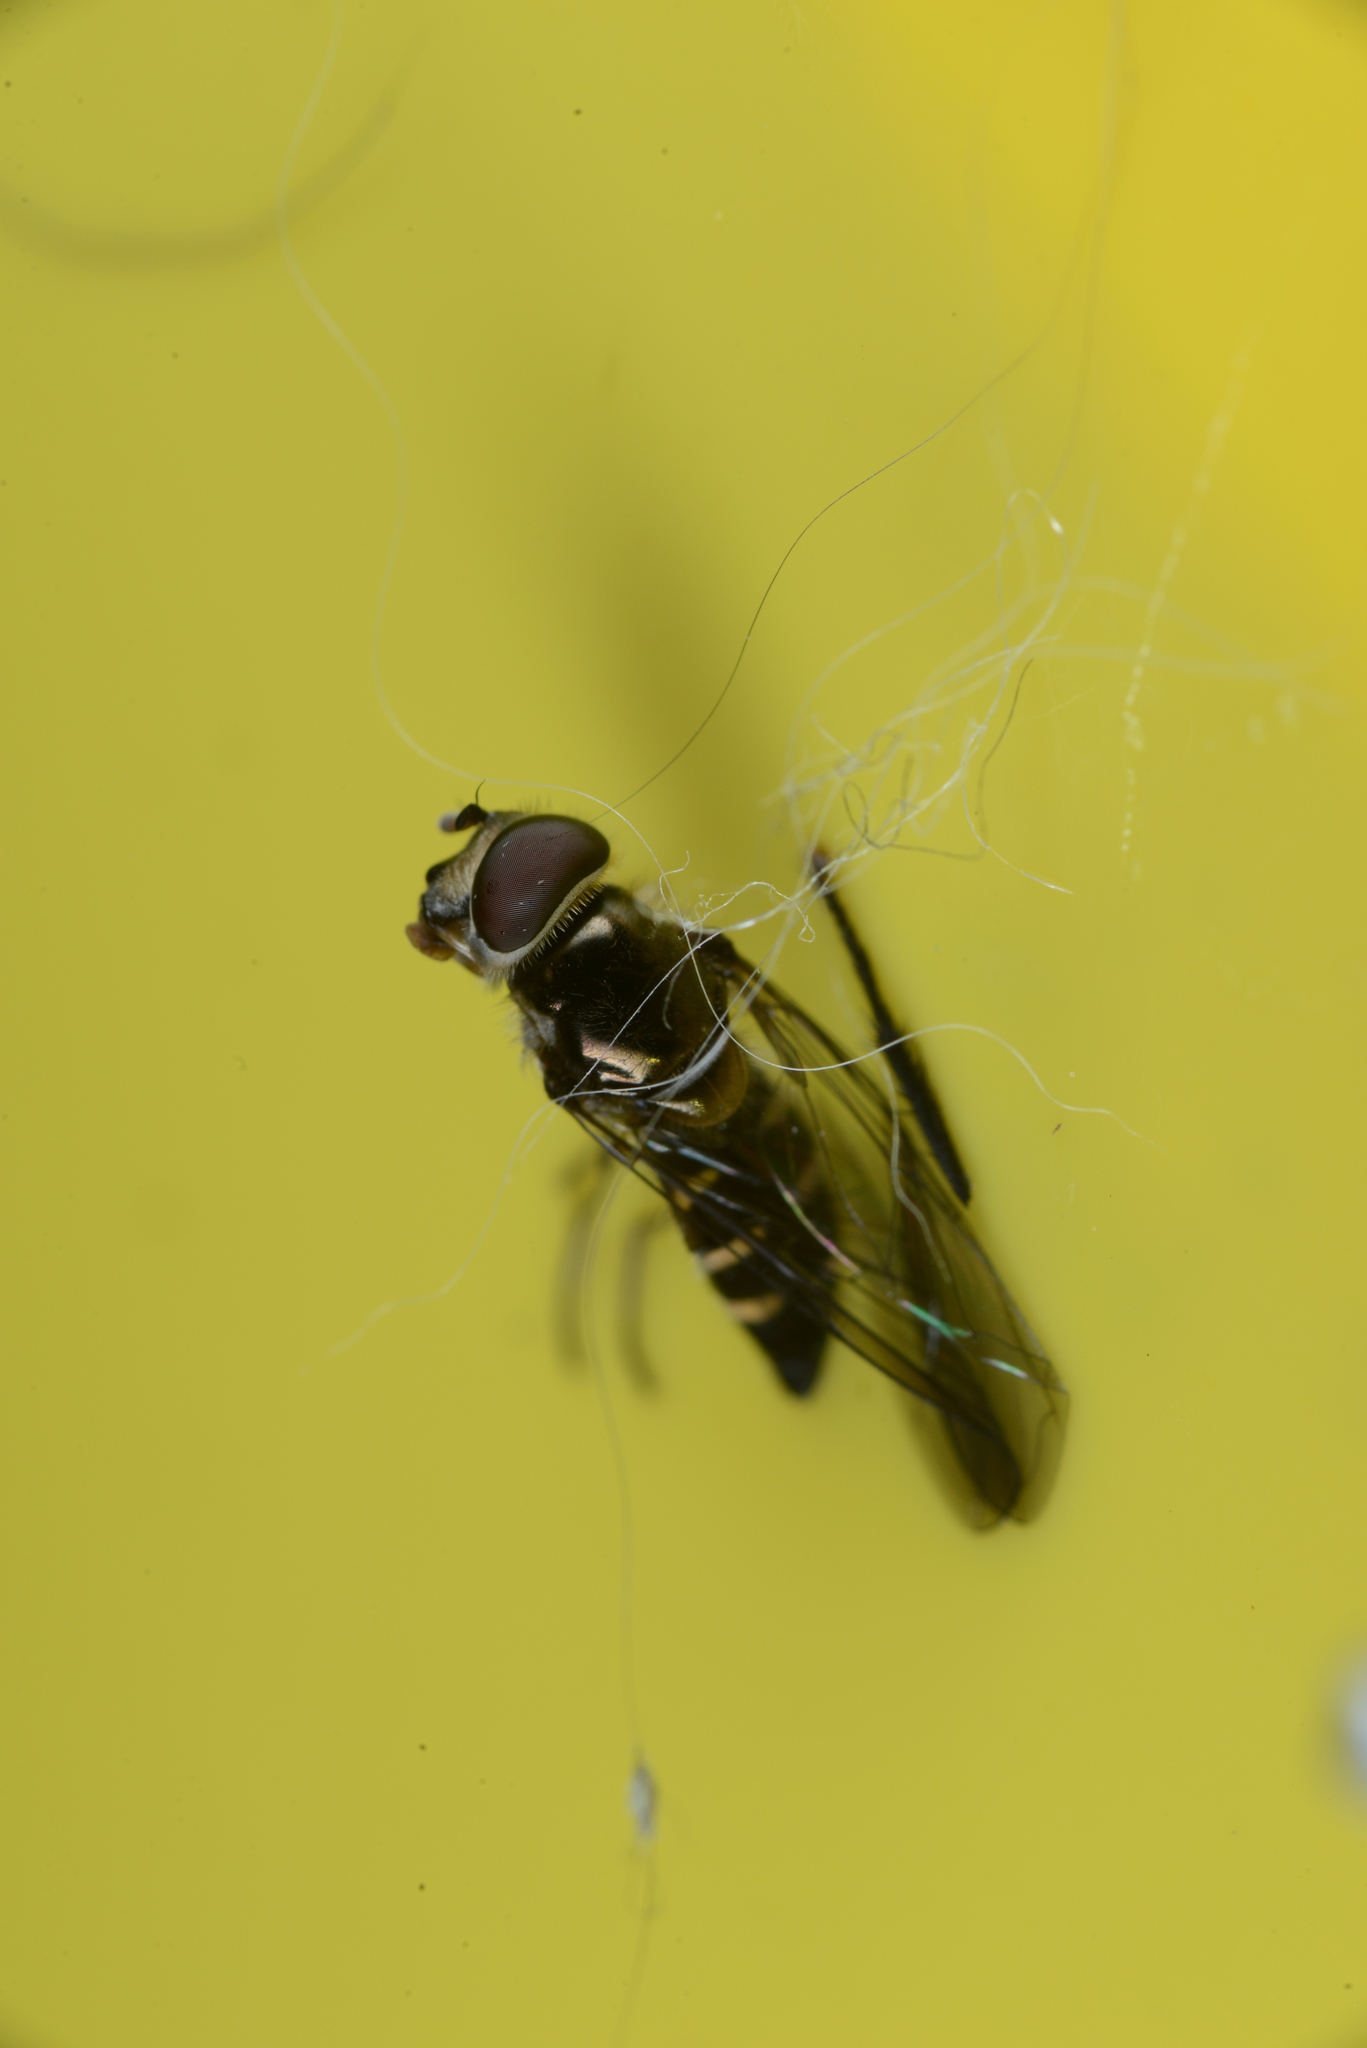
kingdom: Animalia
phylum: Arthropoda
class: Insecta
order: Diptera
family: Syrphidae
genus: Melangyna
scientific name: Melangyna novaezelandiae
